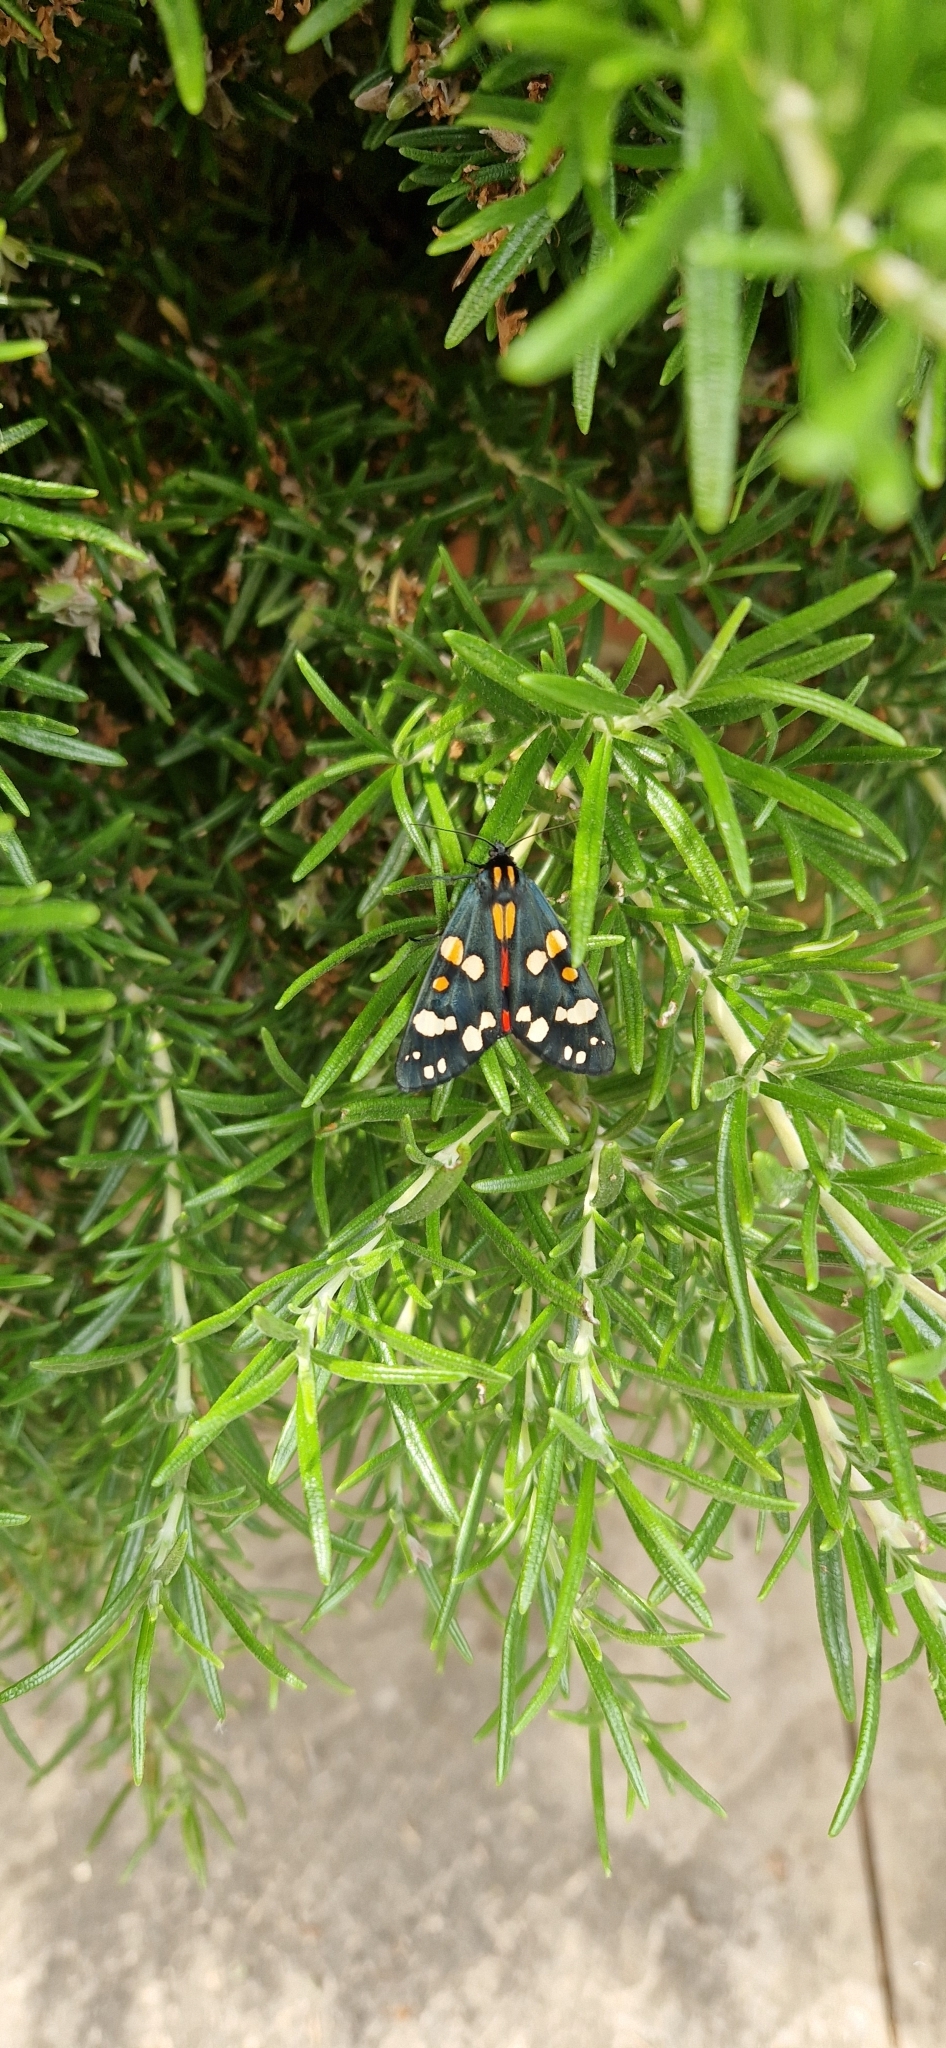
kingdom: Animalia
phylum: Arthropoda
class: Insecta
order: Lepidoptera
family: Erebidae
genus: Callimorpha
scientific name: Callimorpha dominula
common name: Scarlet tiger
